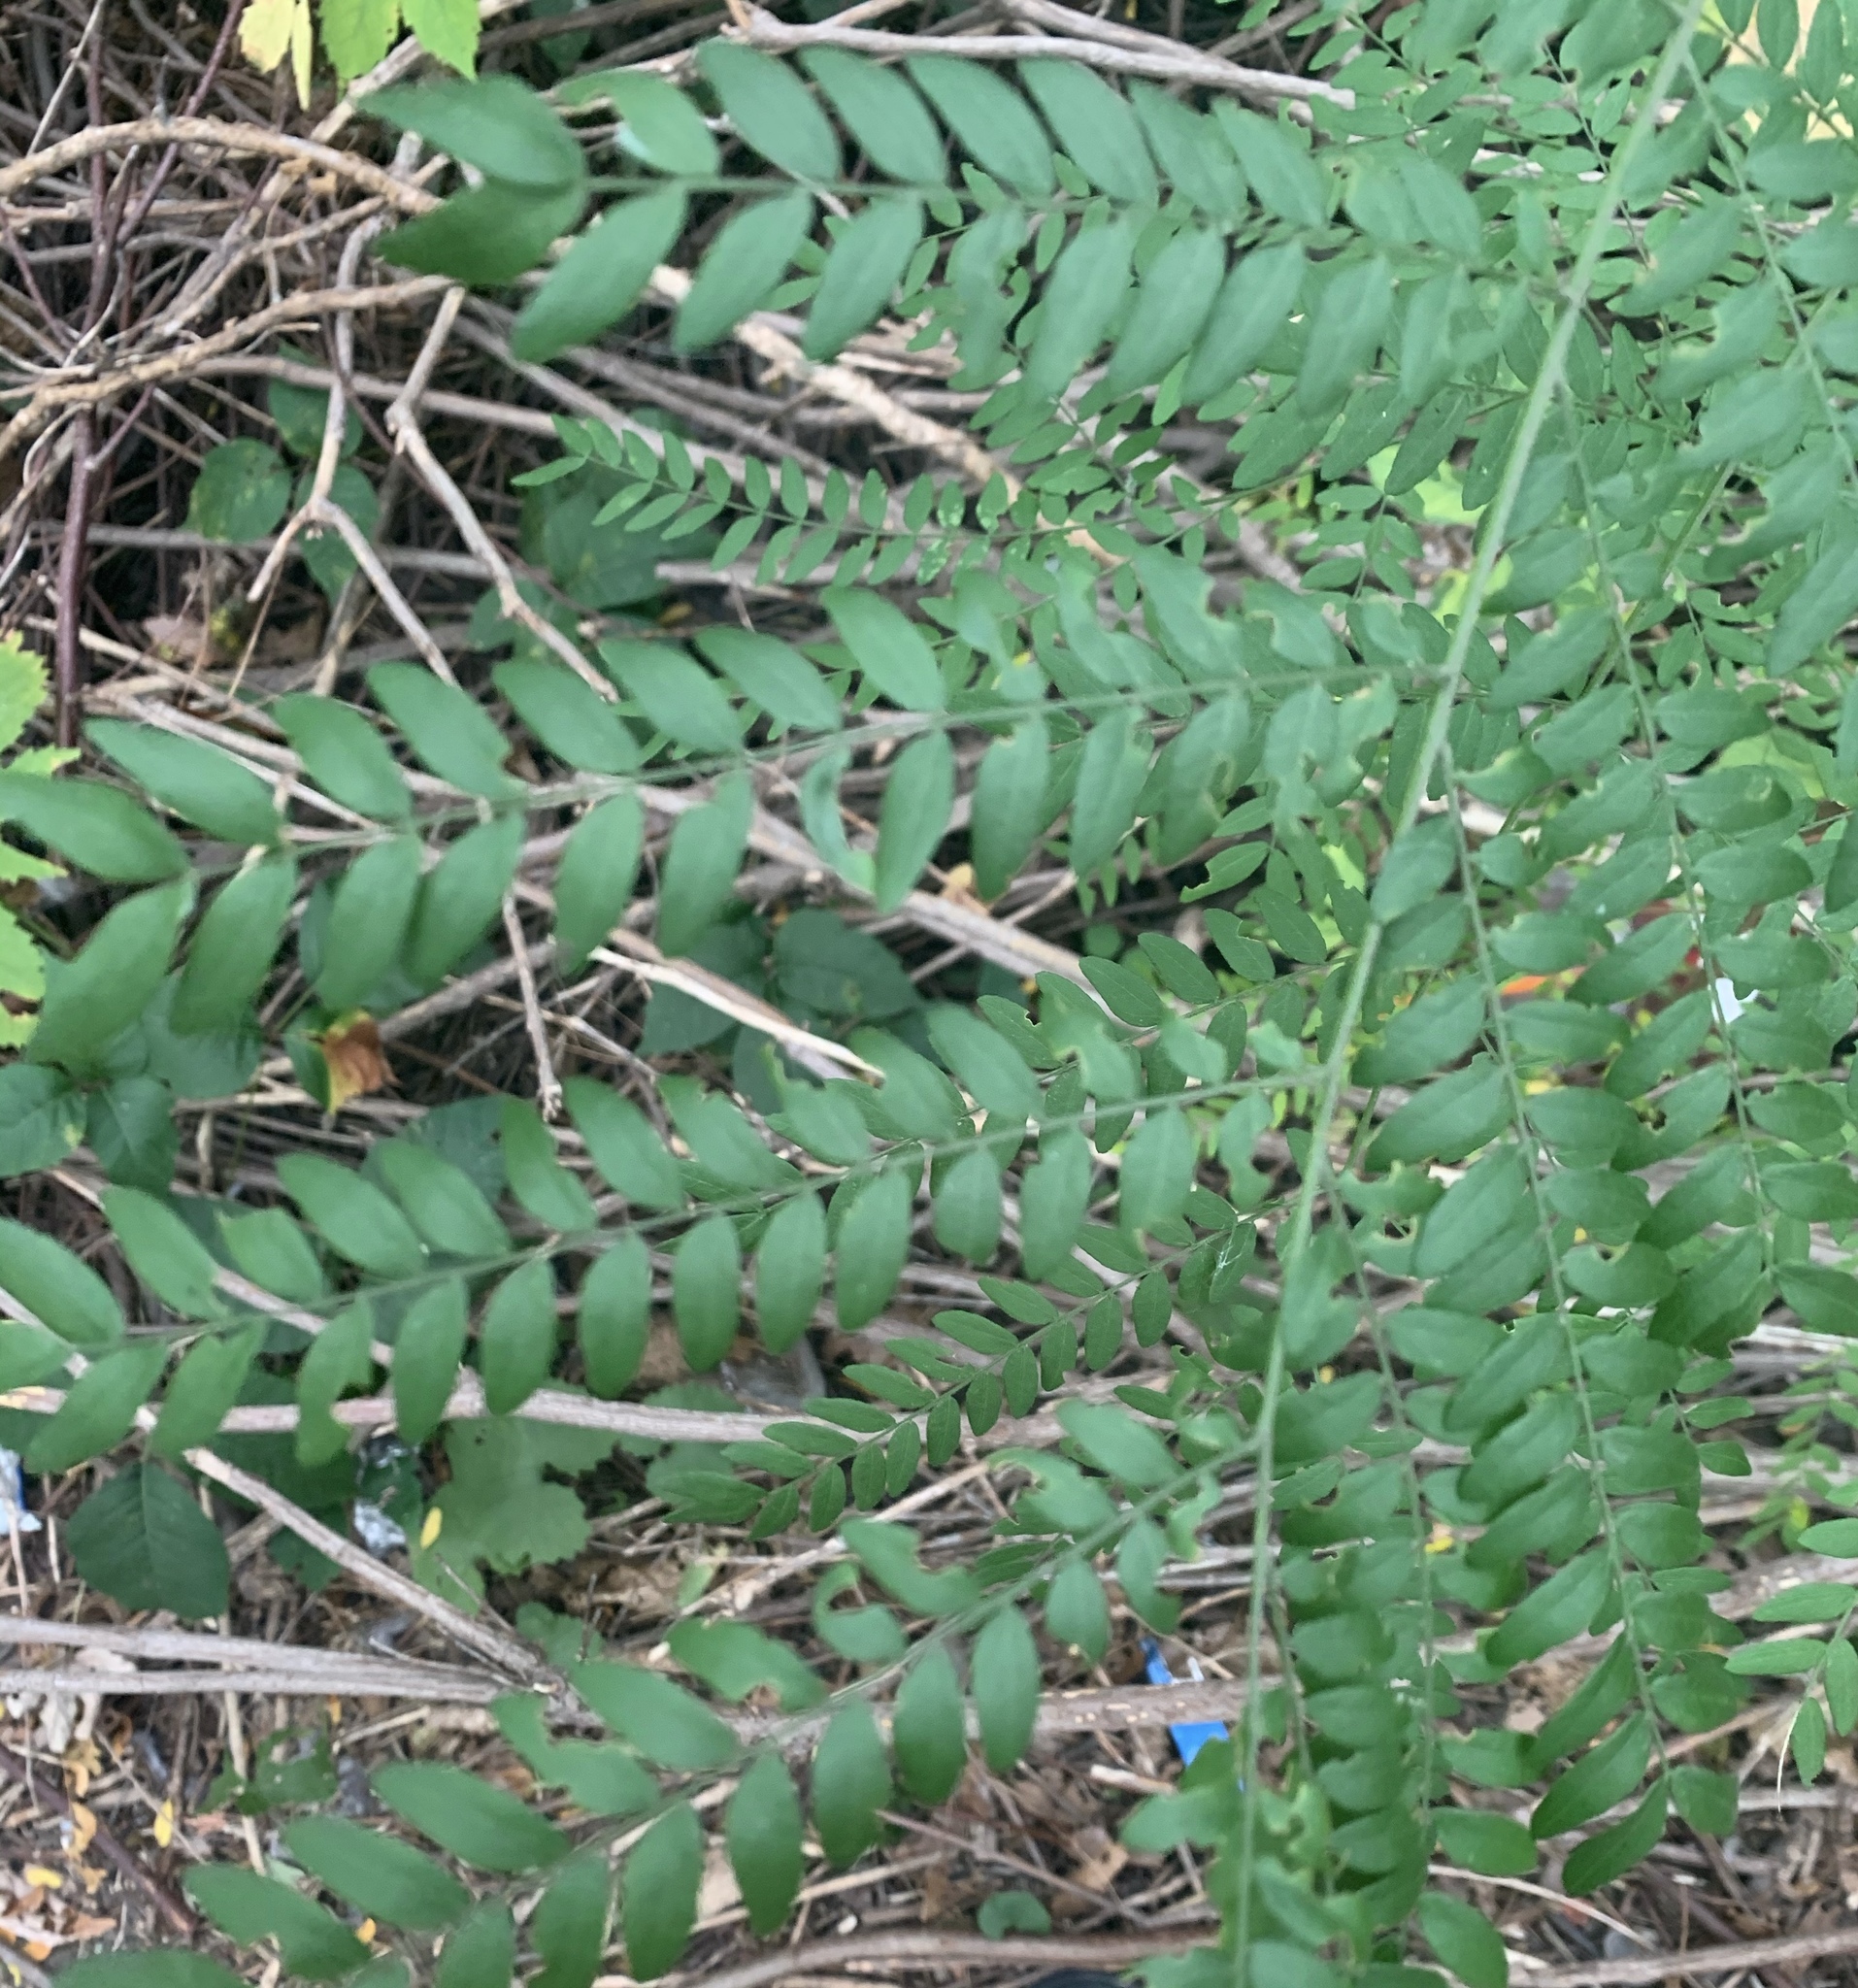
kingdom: Plantae
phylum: Tracheophyta
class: Magnoliopsida
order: Fabales
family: Fabaceae
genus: Gleditsia
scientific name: Gleditsia triacanthos
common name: Common honeylocust
